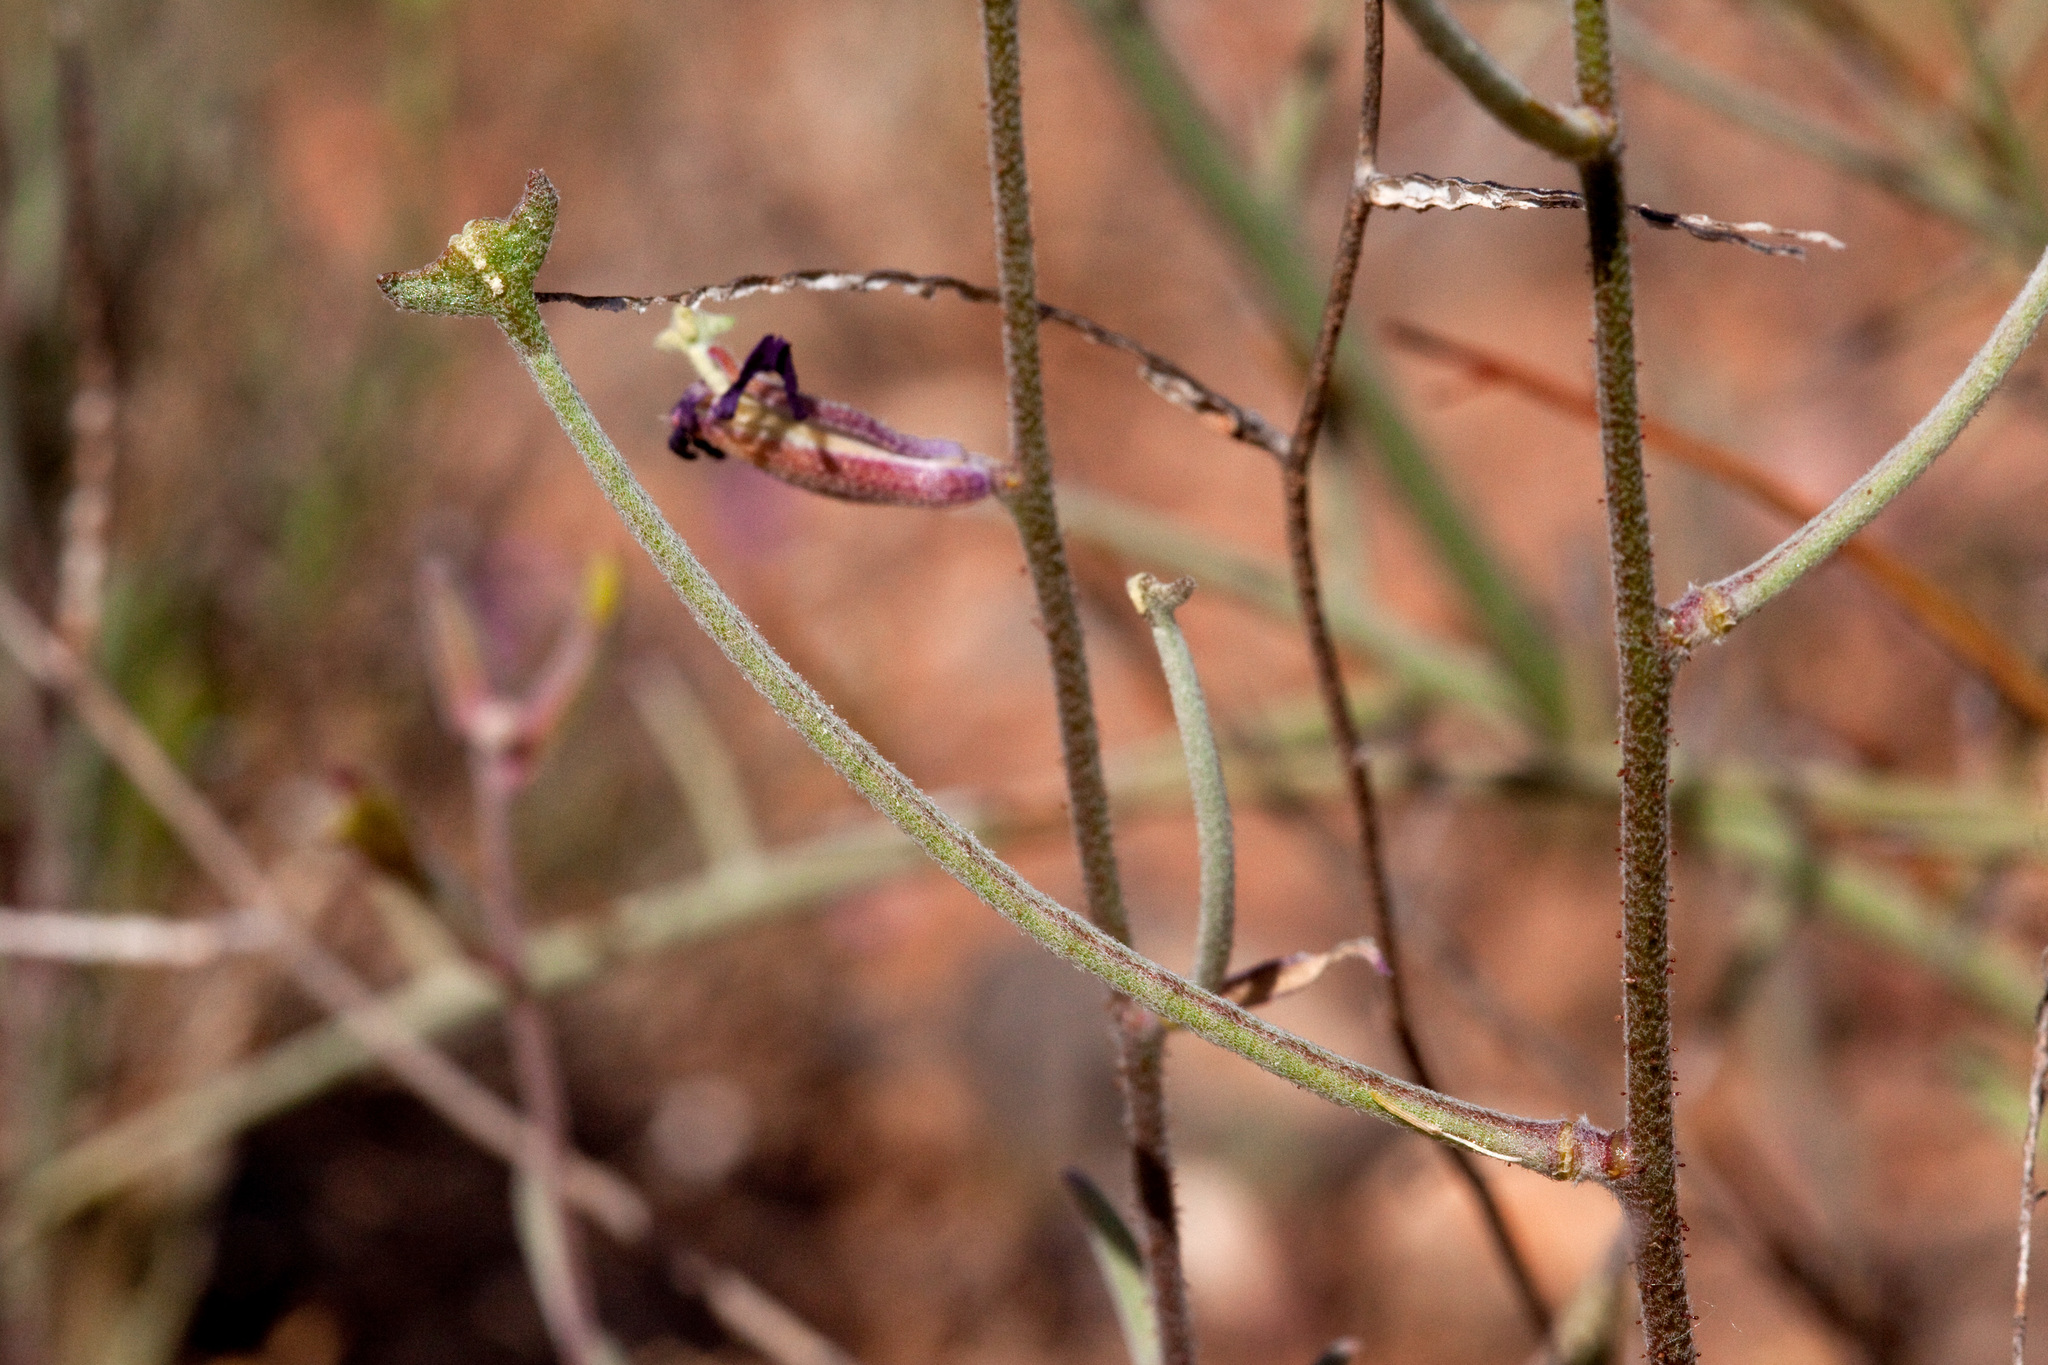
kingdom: Plantae
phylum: Tracheophyta
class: Magnoliopsida
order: Brassicales
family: Brassicaceae
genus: Matthiola
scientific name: Matthiola longipetala
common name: Night-scented stock
